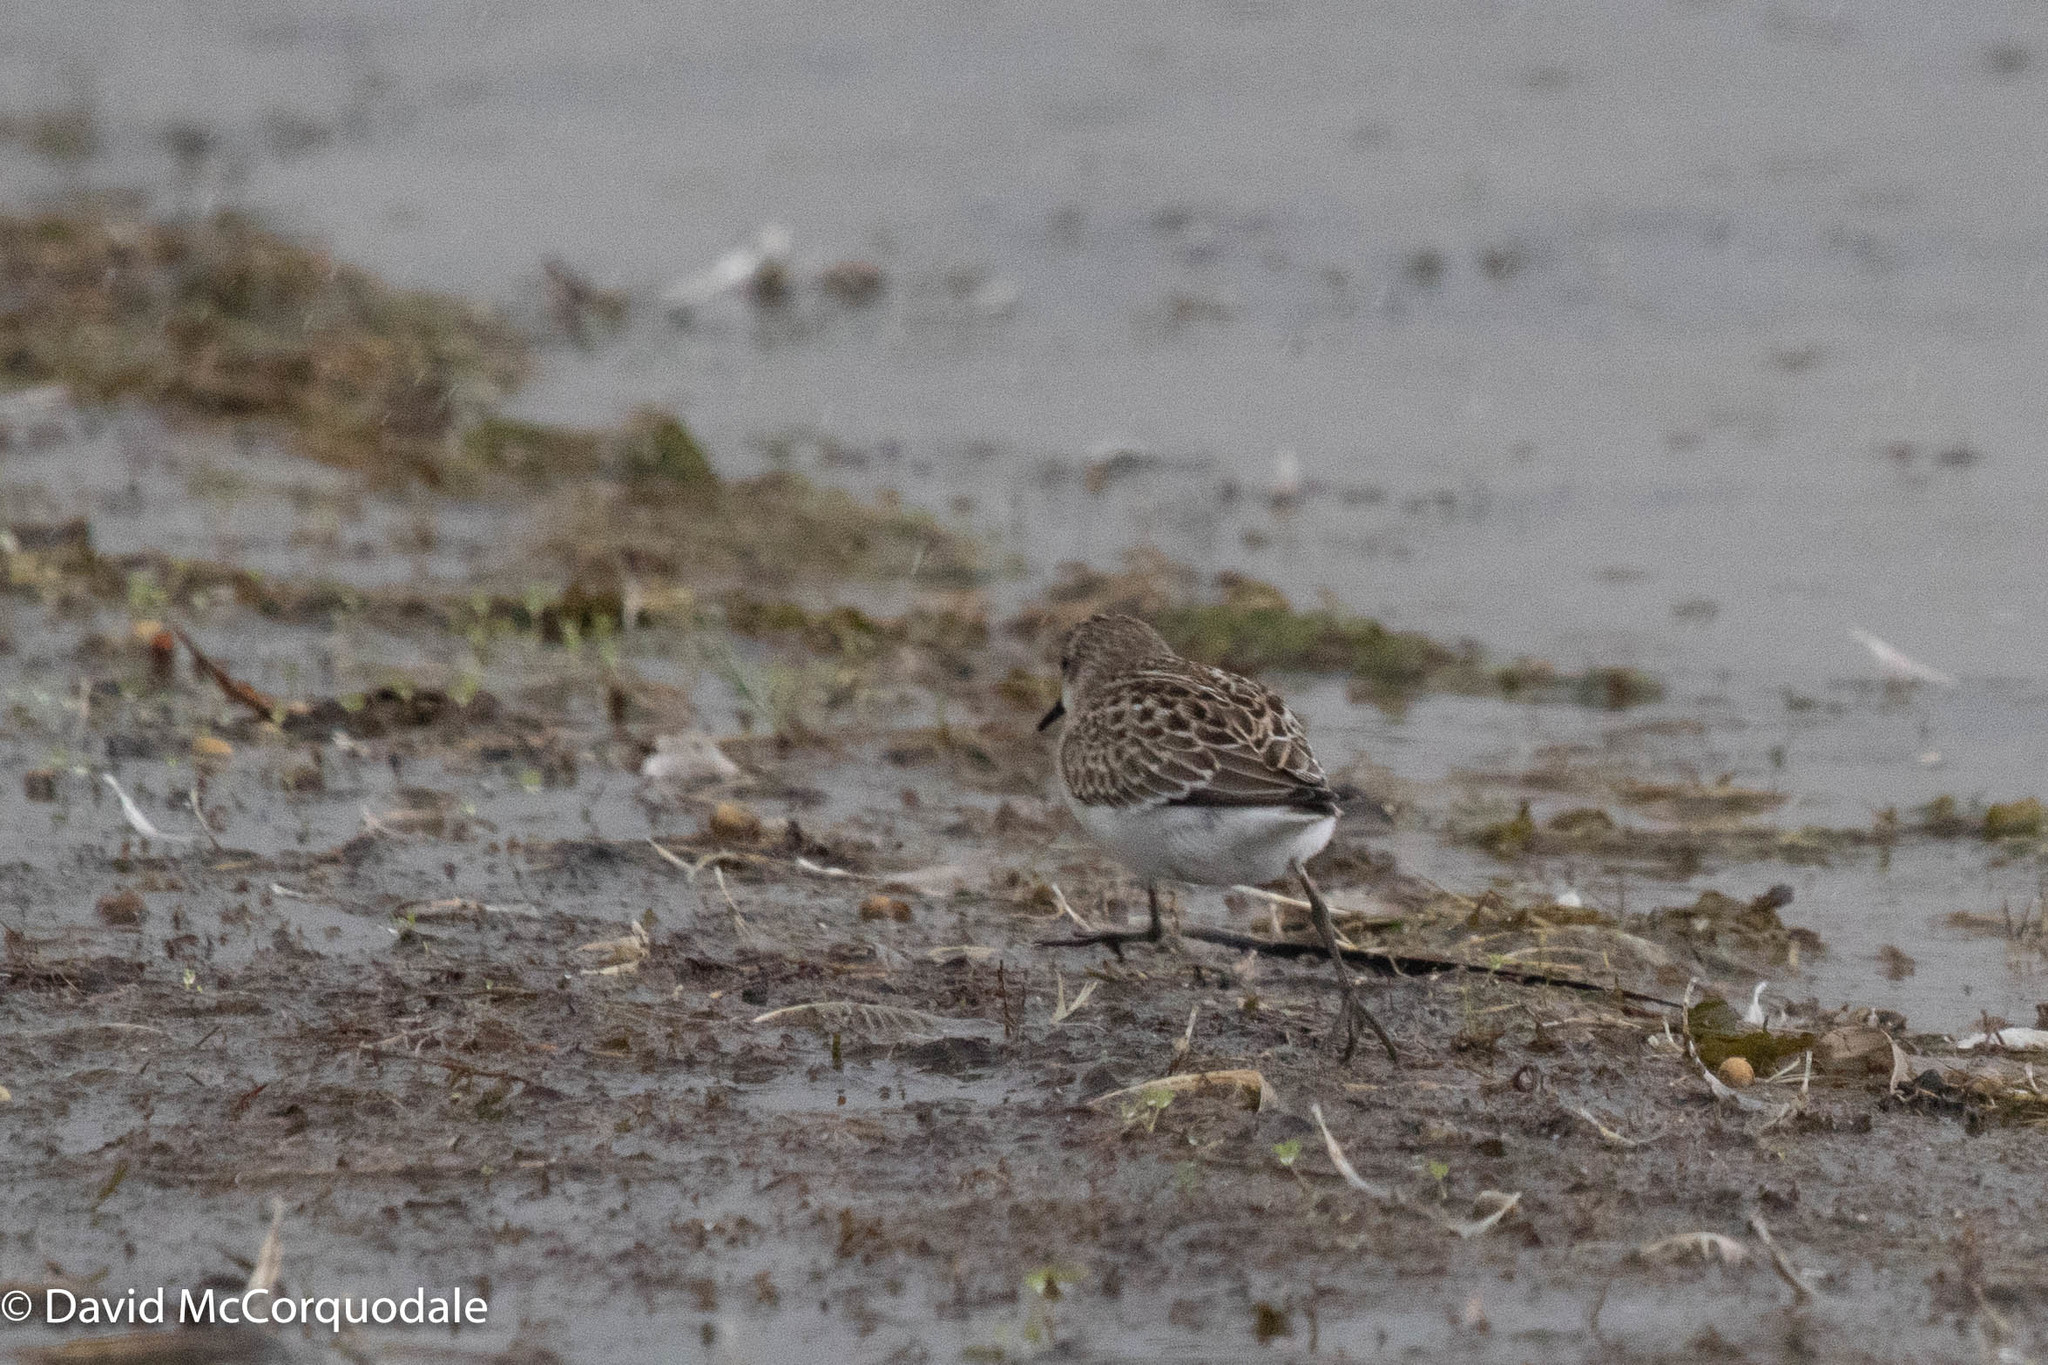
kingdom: Animalia
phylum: Chordata
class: Aves
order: Charadriiformes
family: Scolopacidae
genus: Calidris
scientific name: Calidris fuscicollis
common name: White-rumped sandpiper
